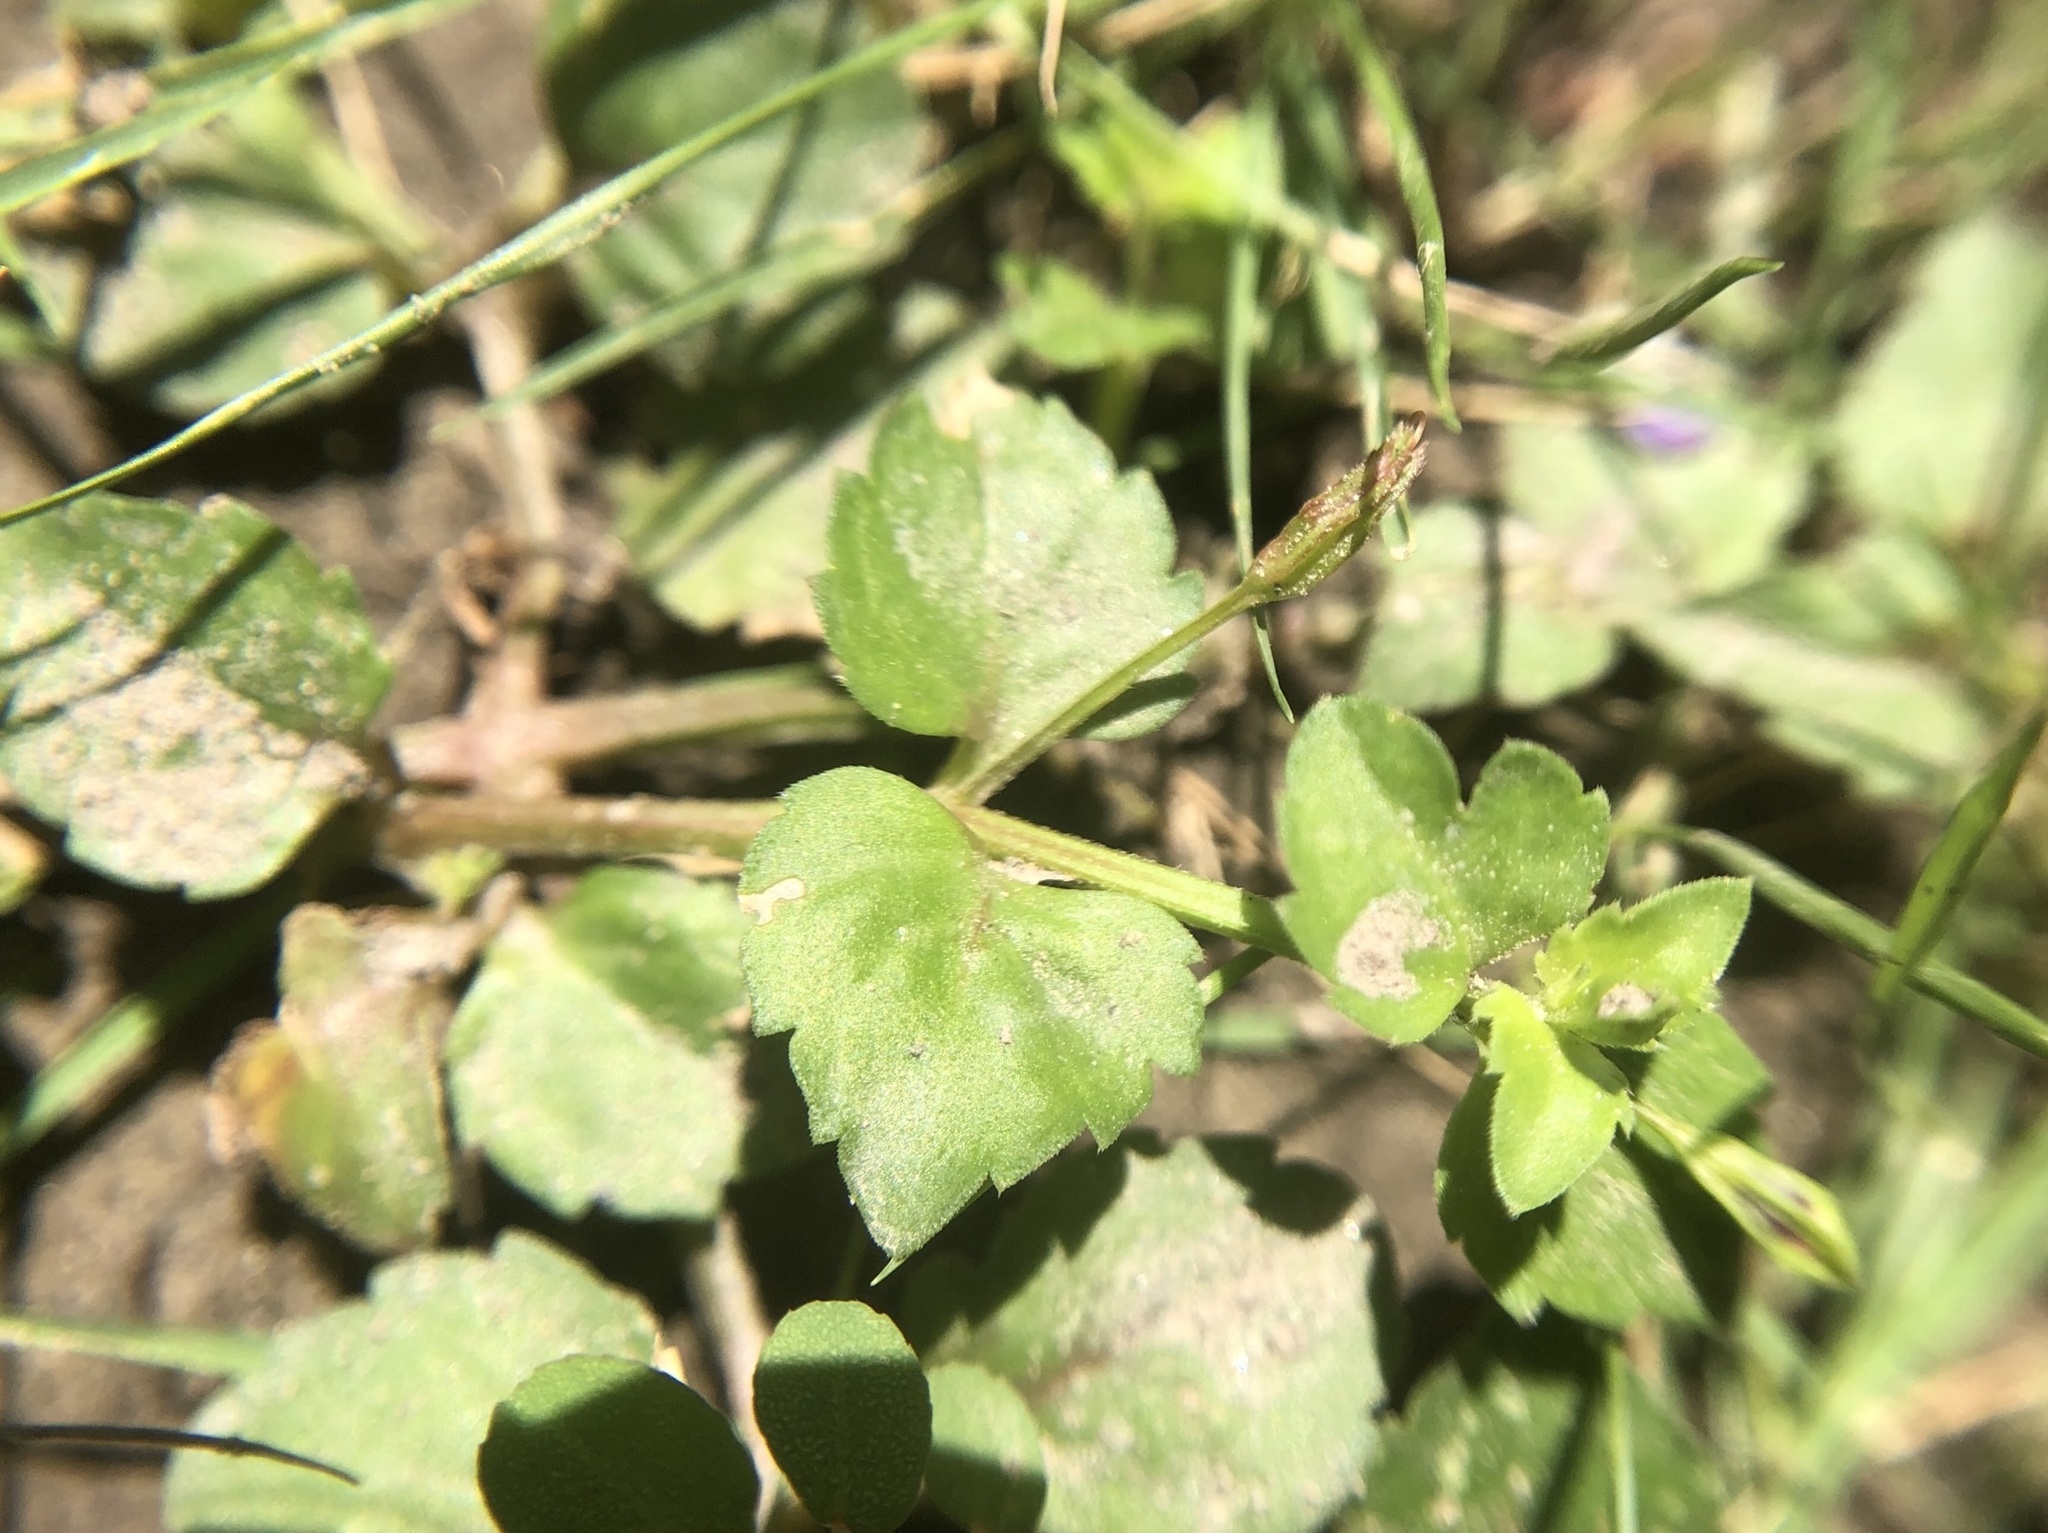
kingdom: Plantae
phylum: Tracheophyta
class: Magnoliopsida
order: Lamiales
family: Mazaceae
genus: Mazus
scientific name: Mazus pumilus
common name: Japanese mazus
